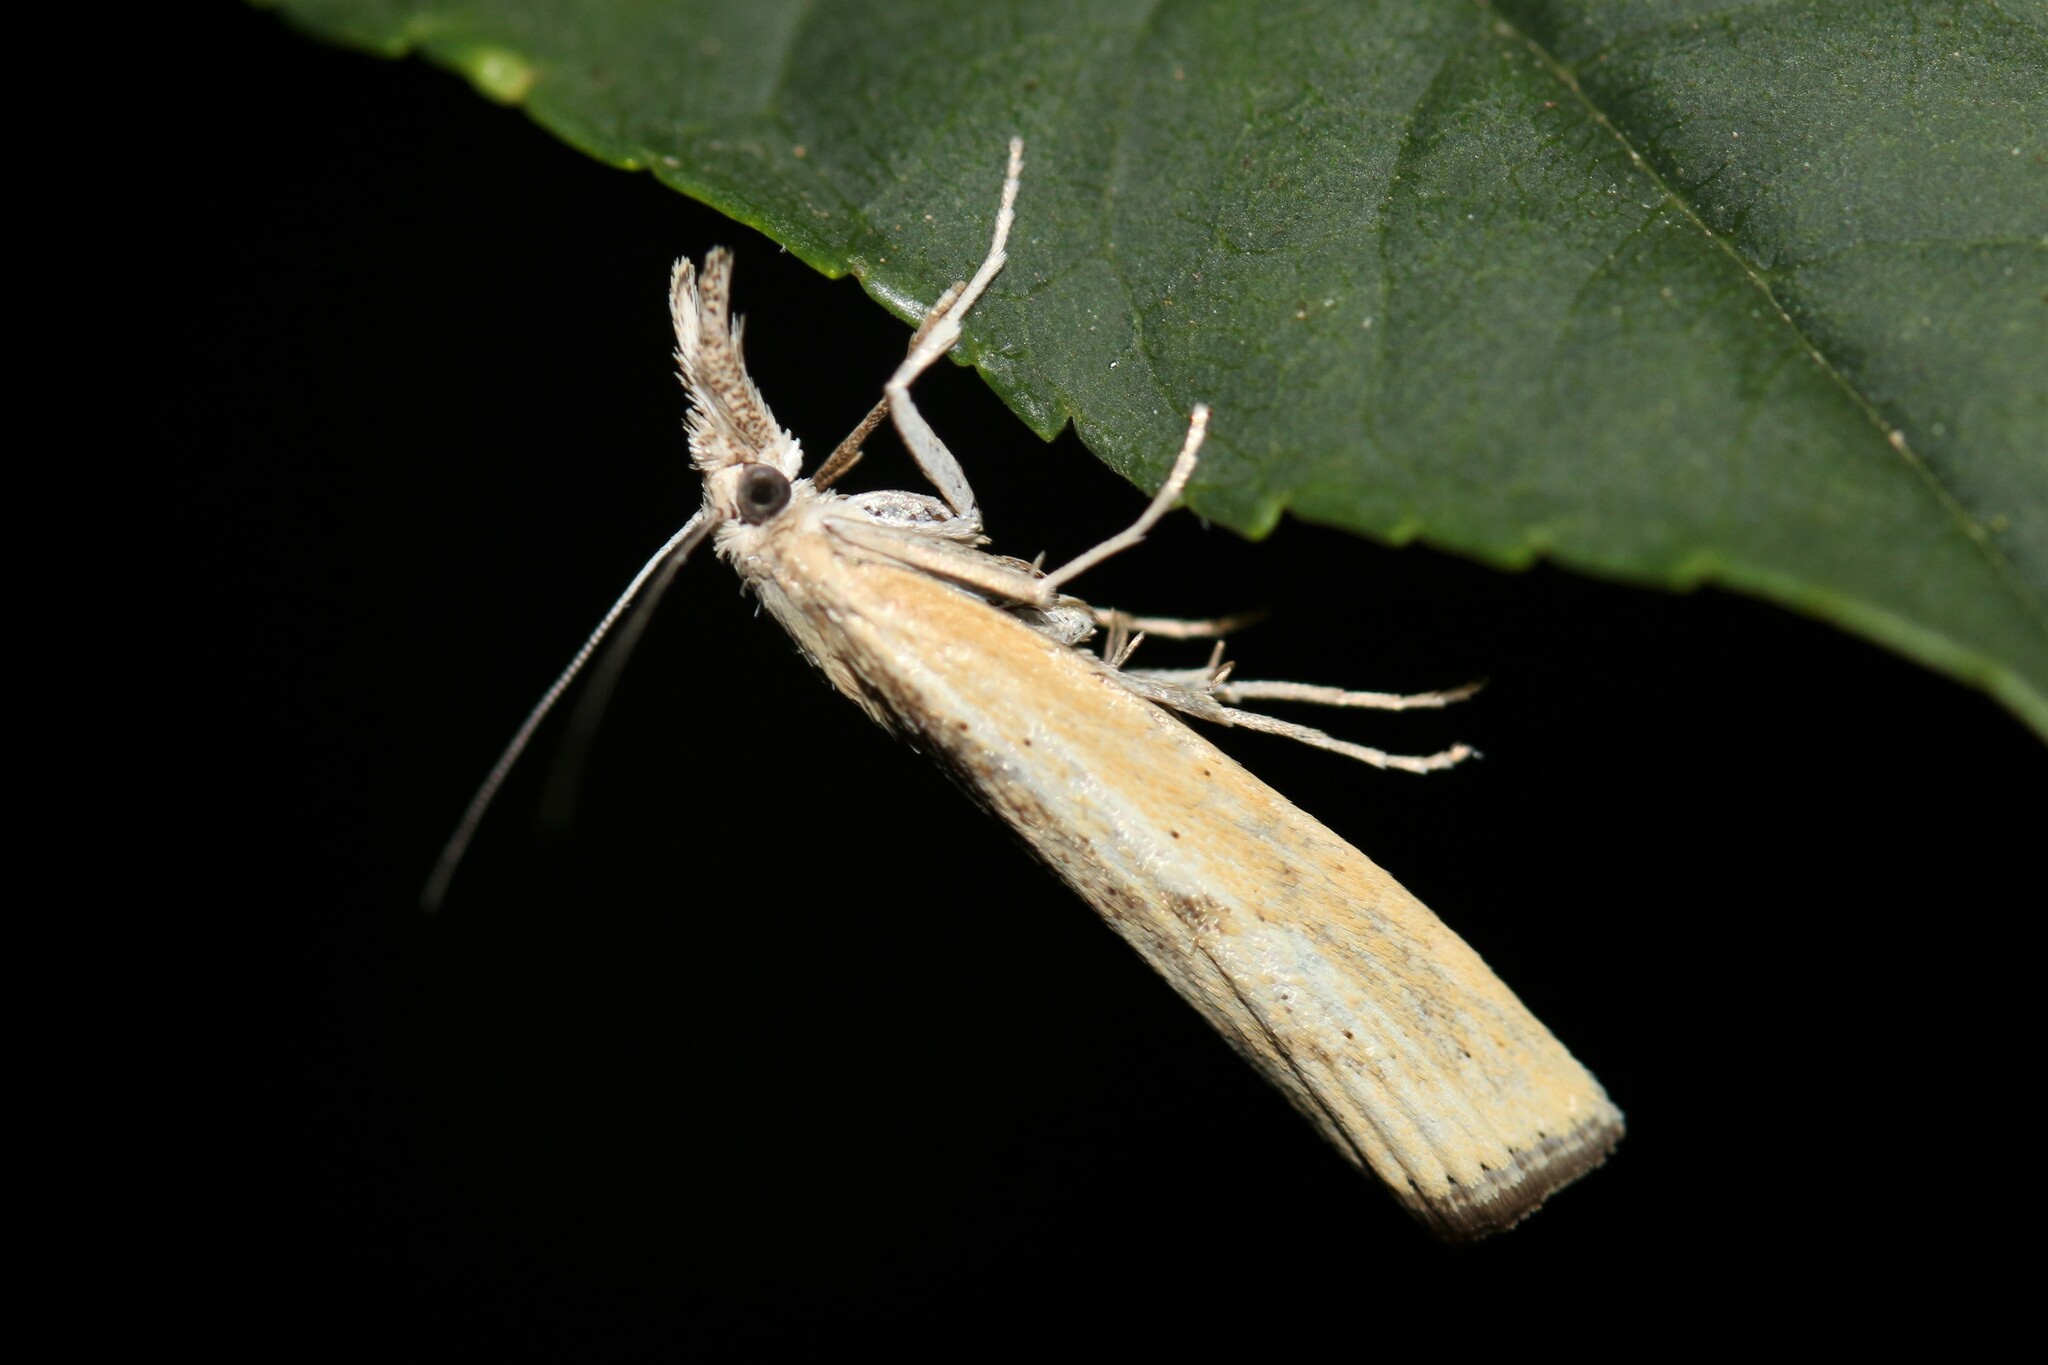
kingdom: Animalia
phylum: Arthropoda
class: Insecta
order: Lepidoptera
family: Crambidae
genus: Agriphila
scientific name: Agriphila inquinatella
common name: Barred grass-veneer
